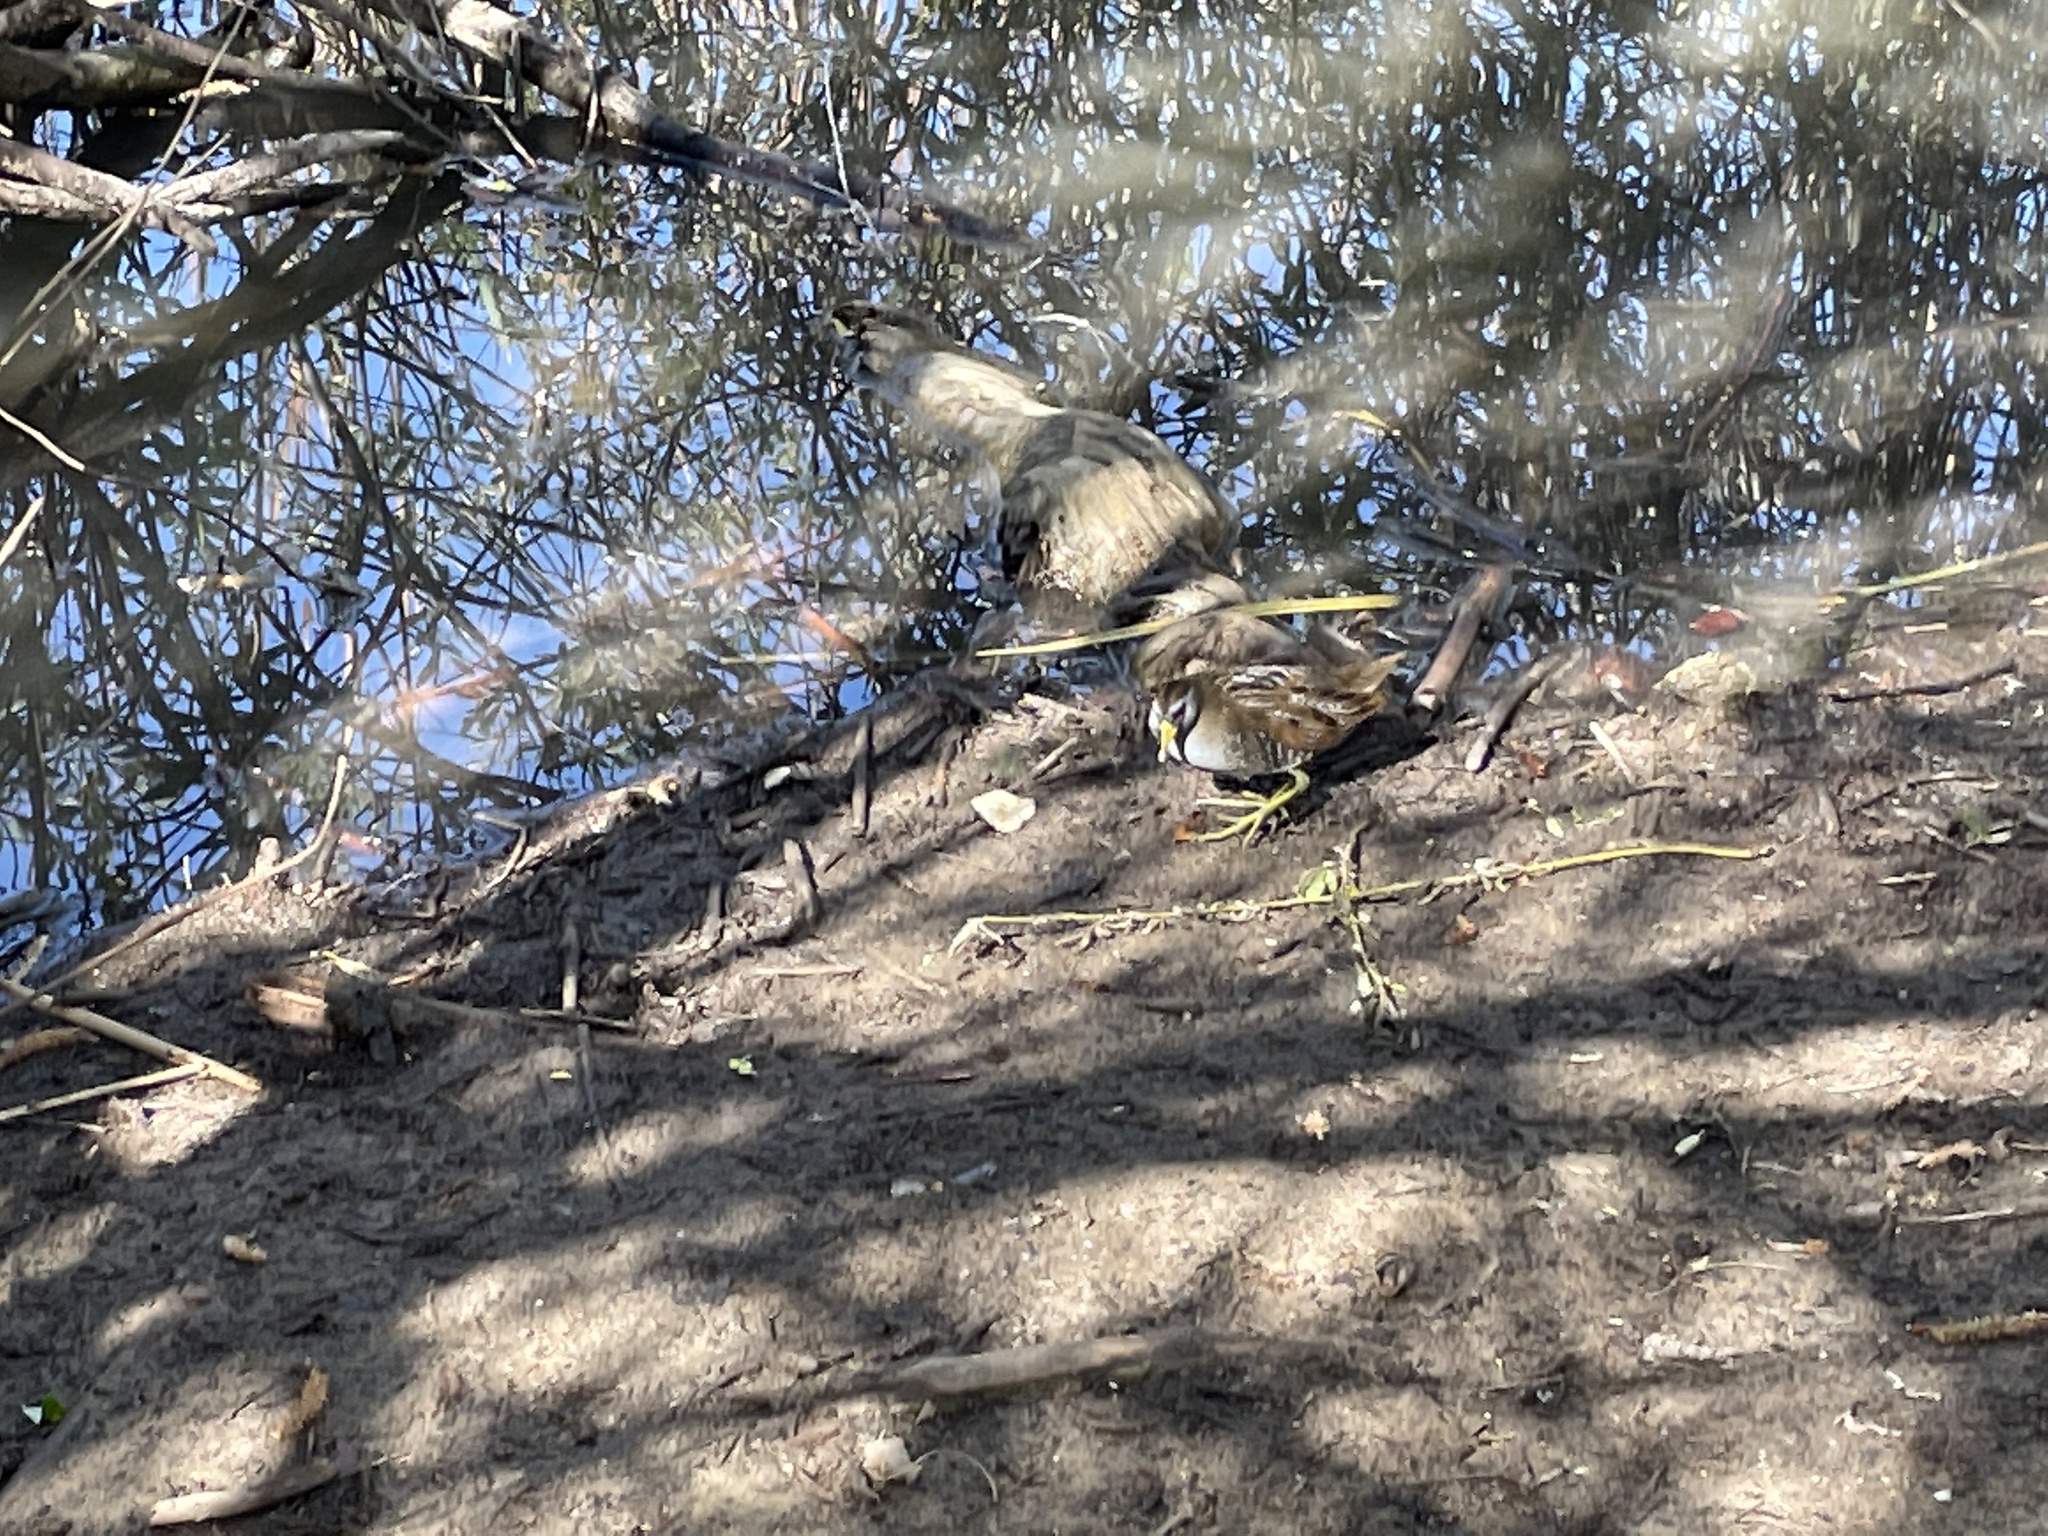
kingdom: Animalia
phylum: Chordata
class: Aves
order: Gruiformes
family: Rallidae
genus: Porzana
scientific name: Porzana carolina
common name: Sora
